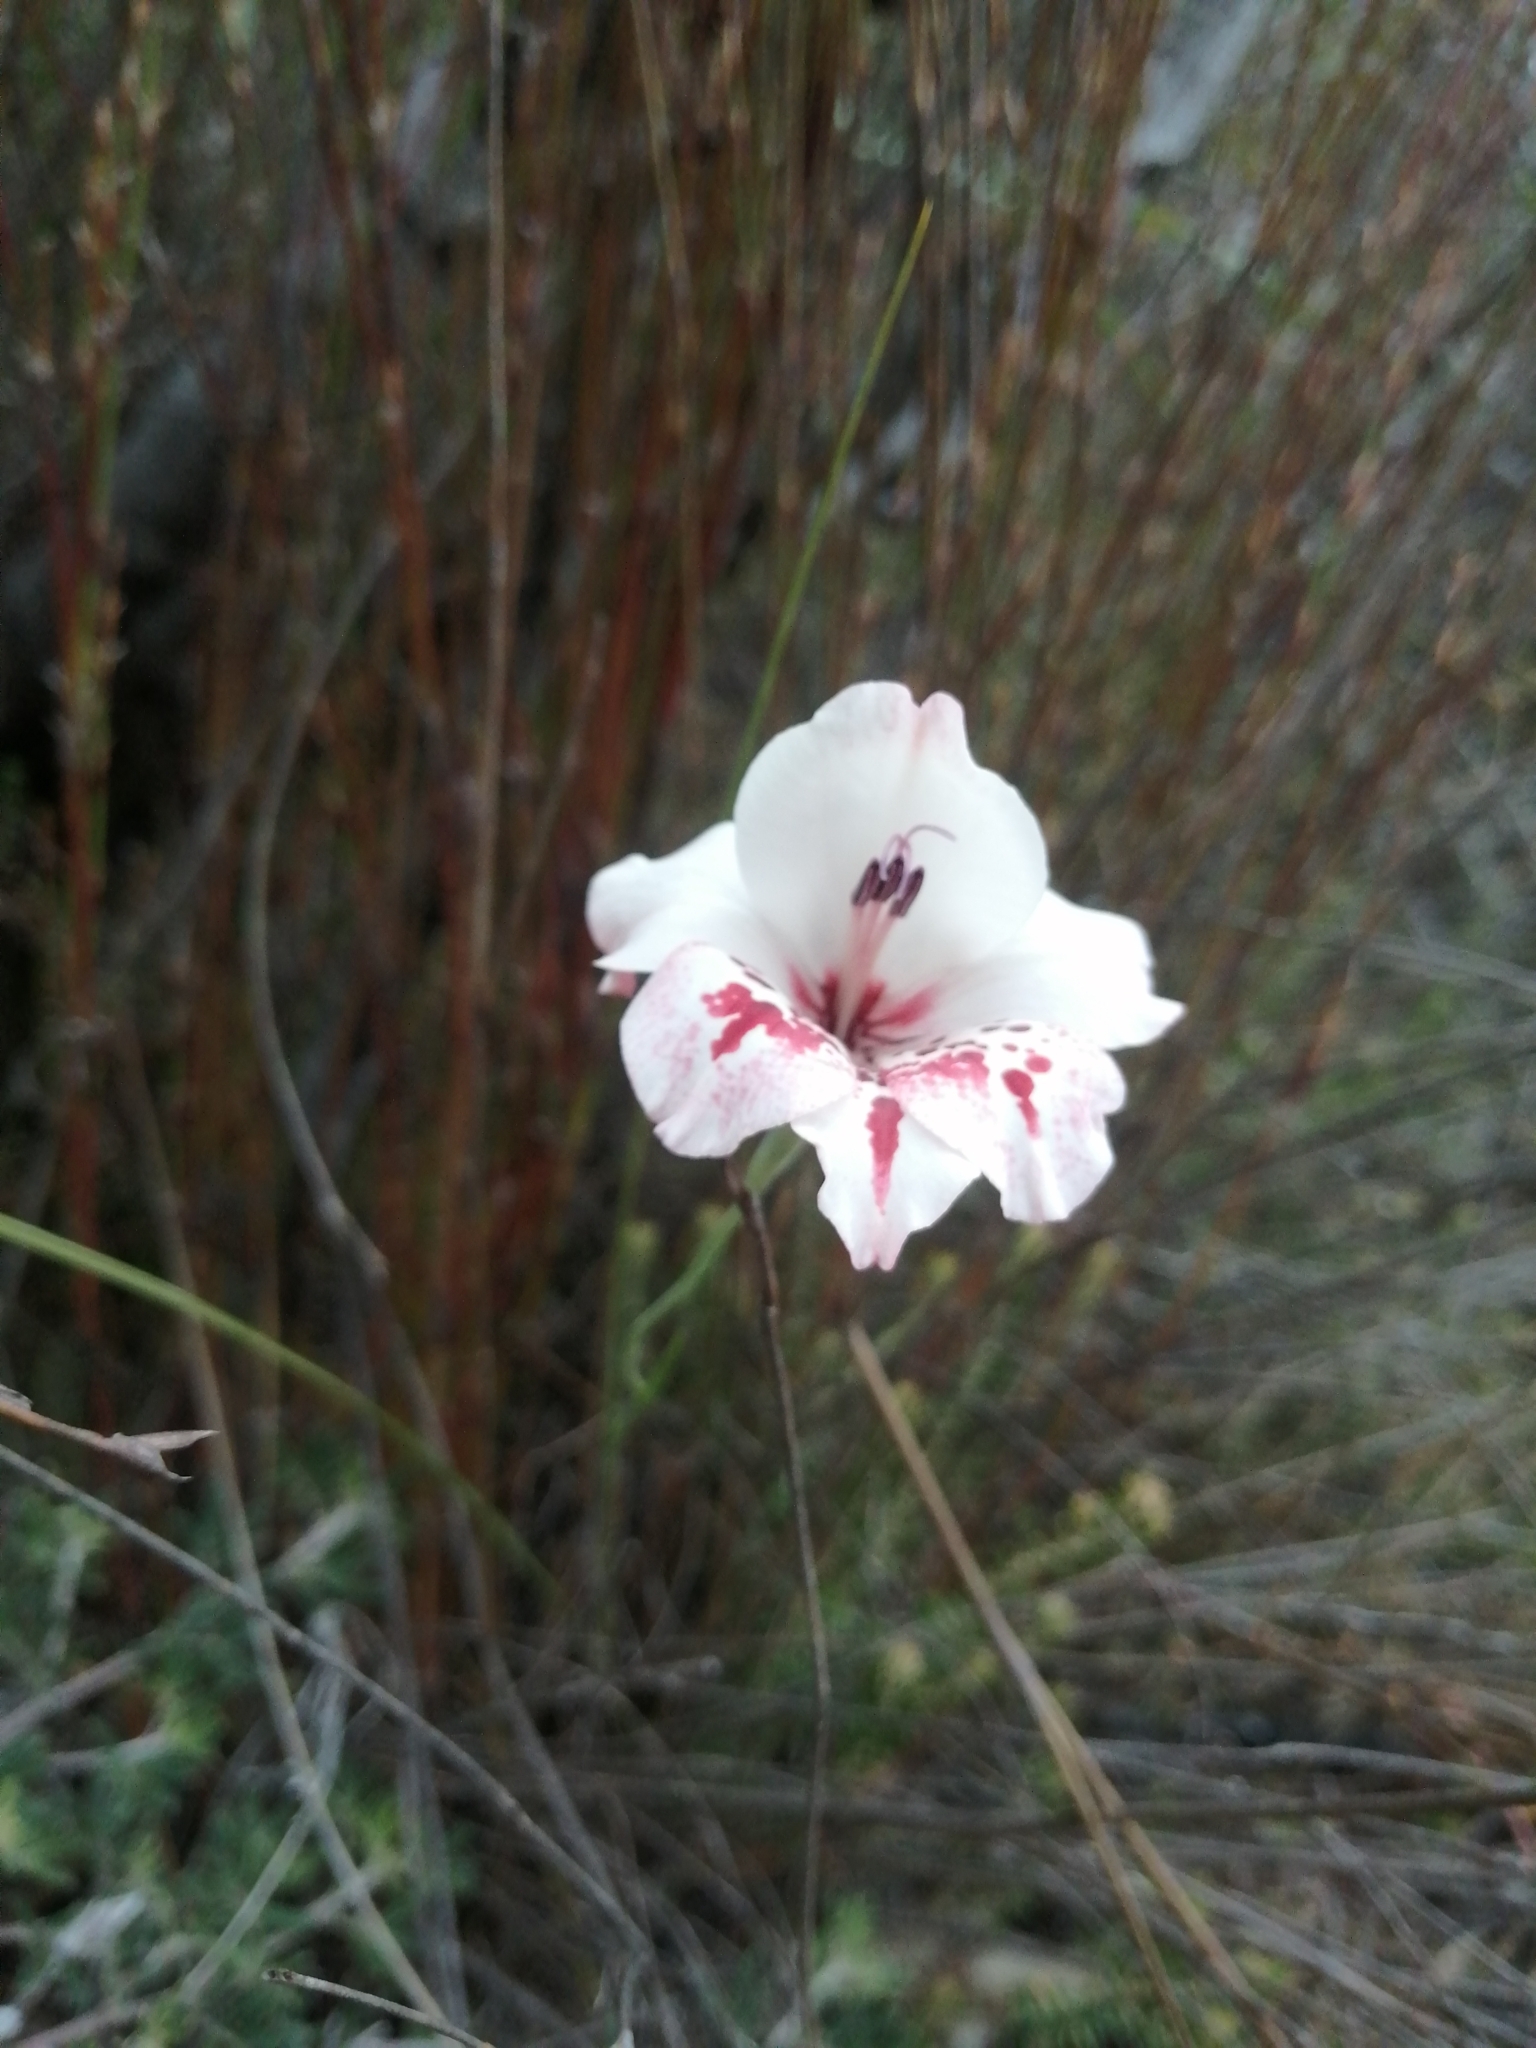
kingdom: Plantae
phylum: Tracheophyta
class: Liliopsida
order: Asparagales
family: Iridaceae
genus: Gladiolus
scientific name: Gladiolus variegatus
